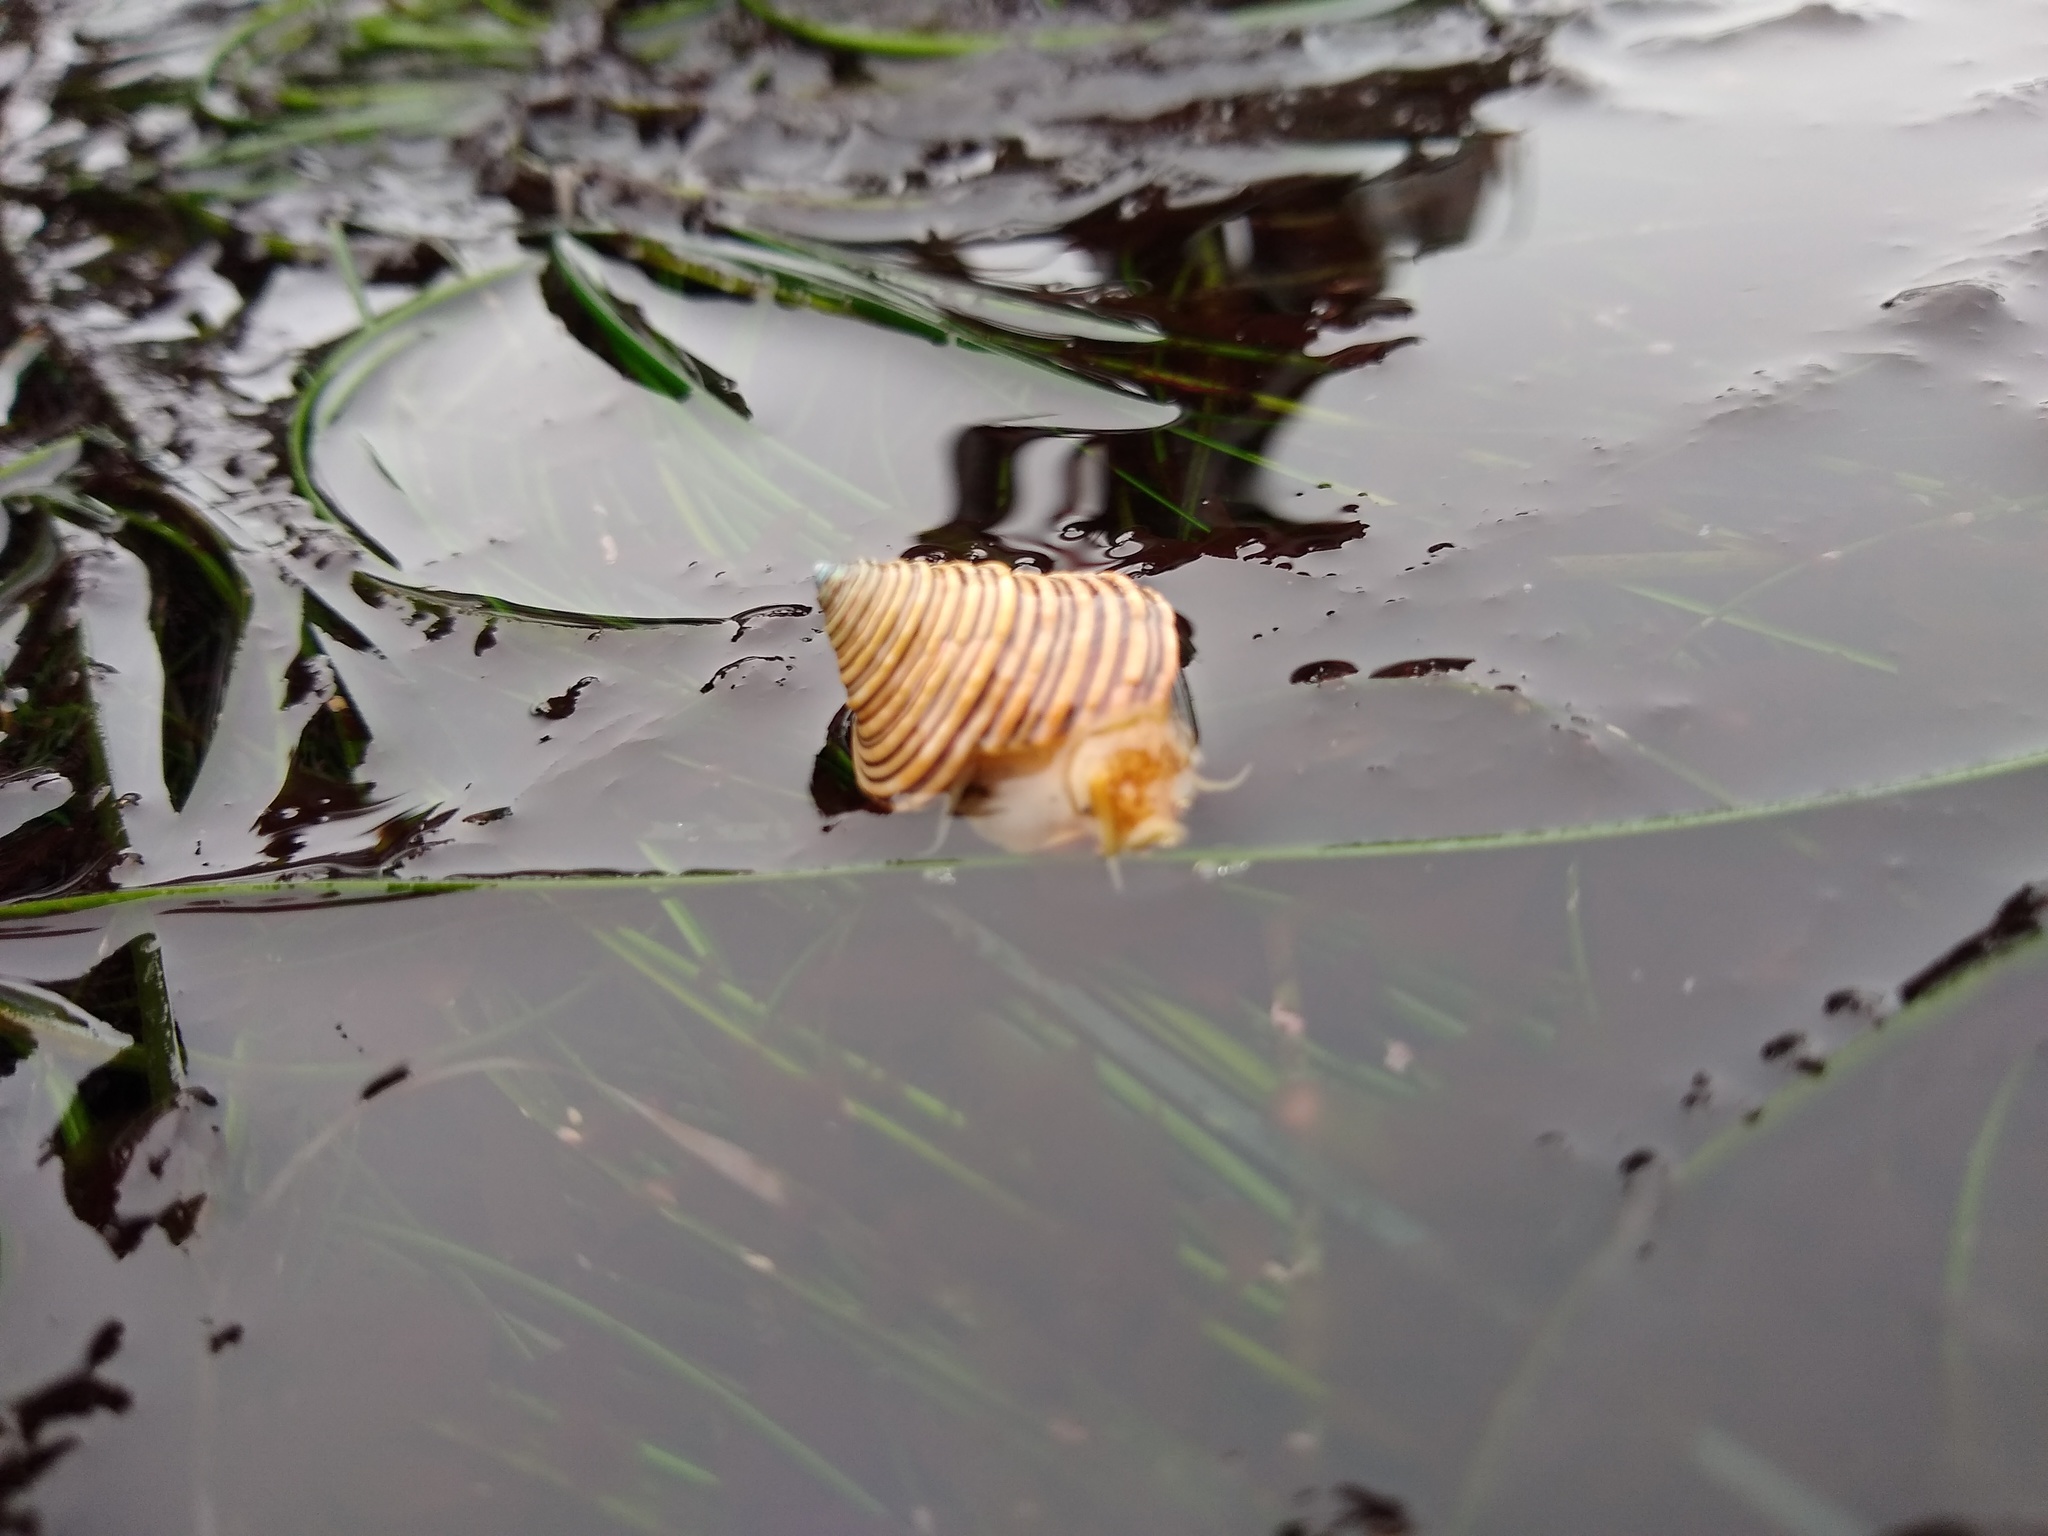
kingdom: Animalia
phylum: Mollusca
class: Gastropoda
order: Trochida
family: Calliostomatidae
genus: Calliostoma
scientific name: Calliostoma canaliculatum
